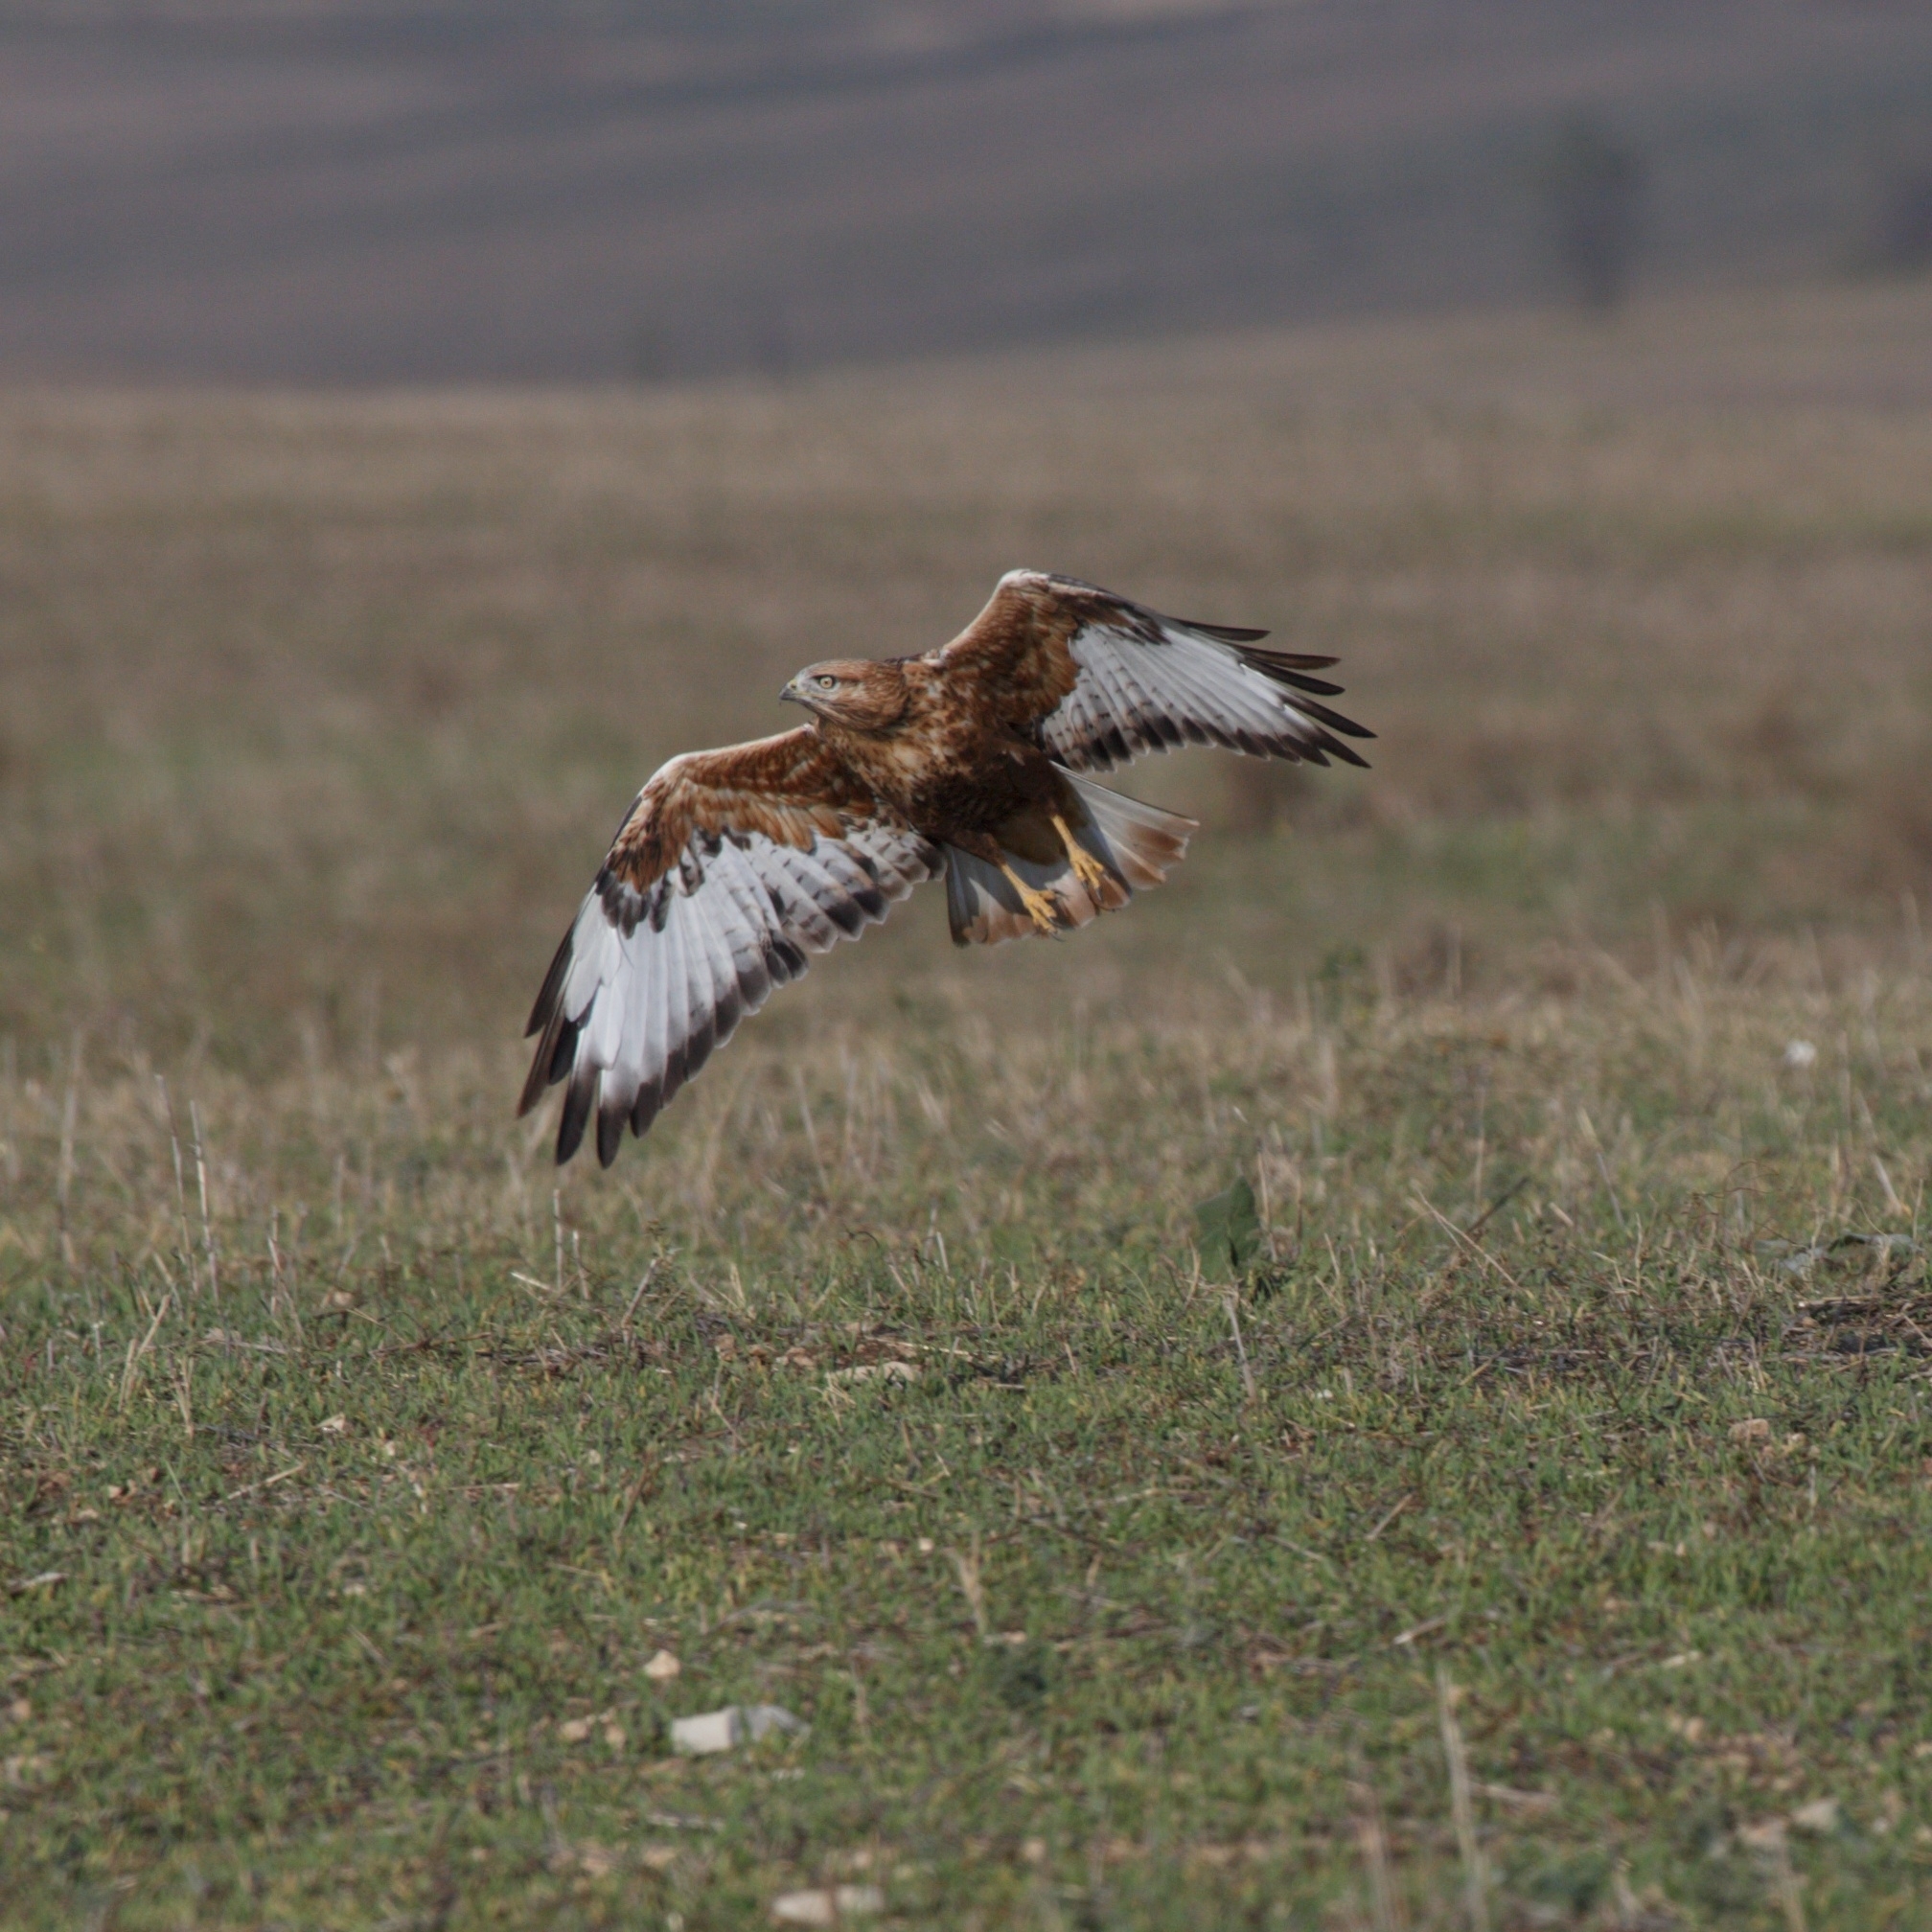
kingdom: Animalia
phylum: Chordata
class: Aves
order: Accipitriformes
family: Accipitridae
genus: Buteo
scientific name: Buteo buteo
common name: Common buzzard
